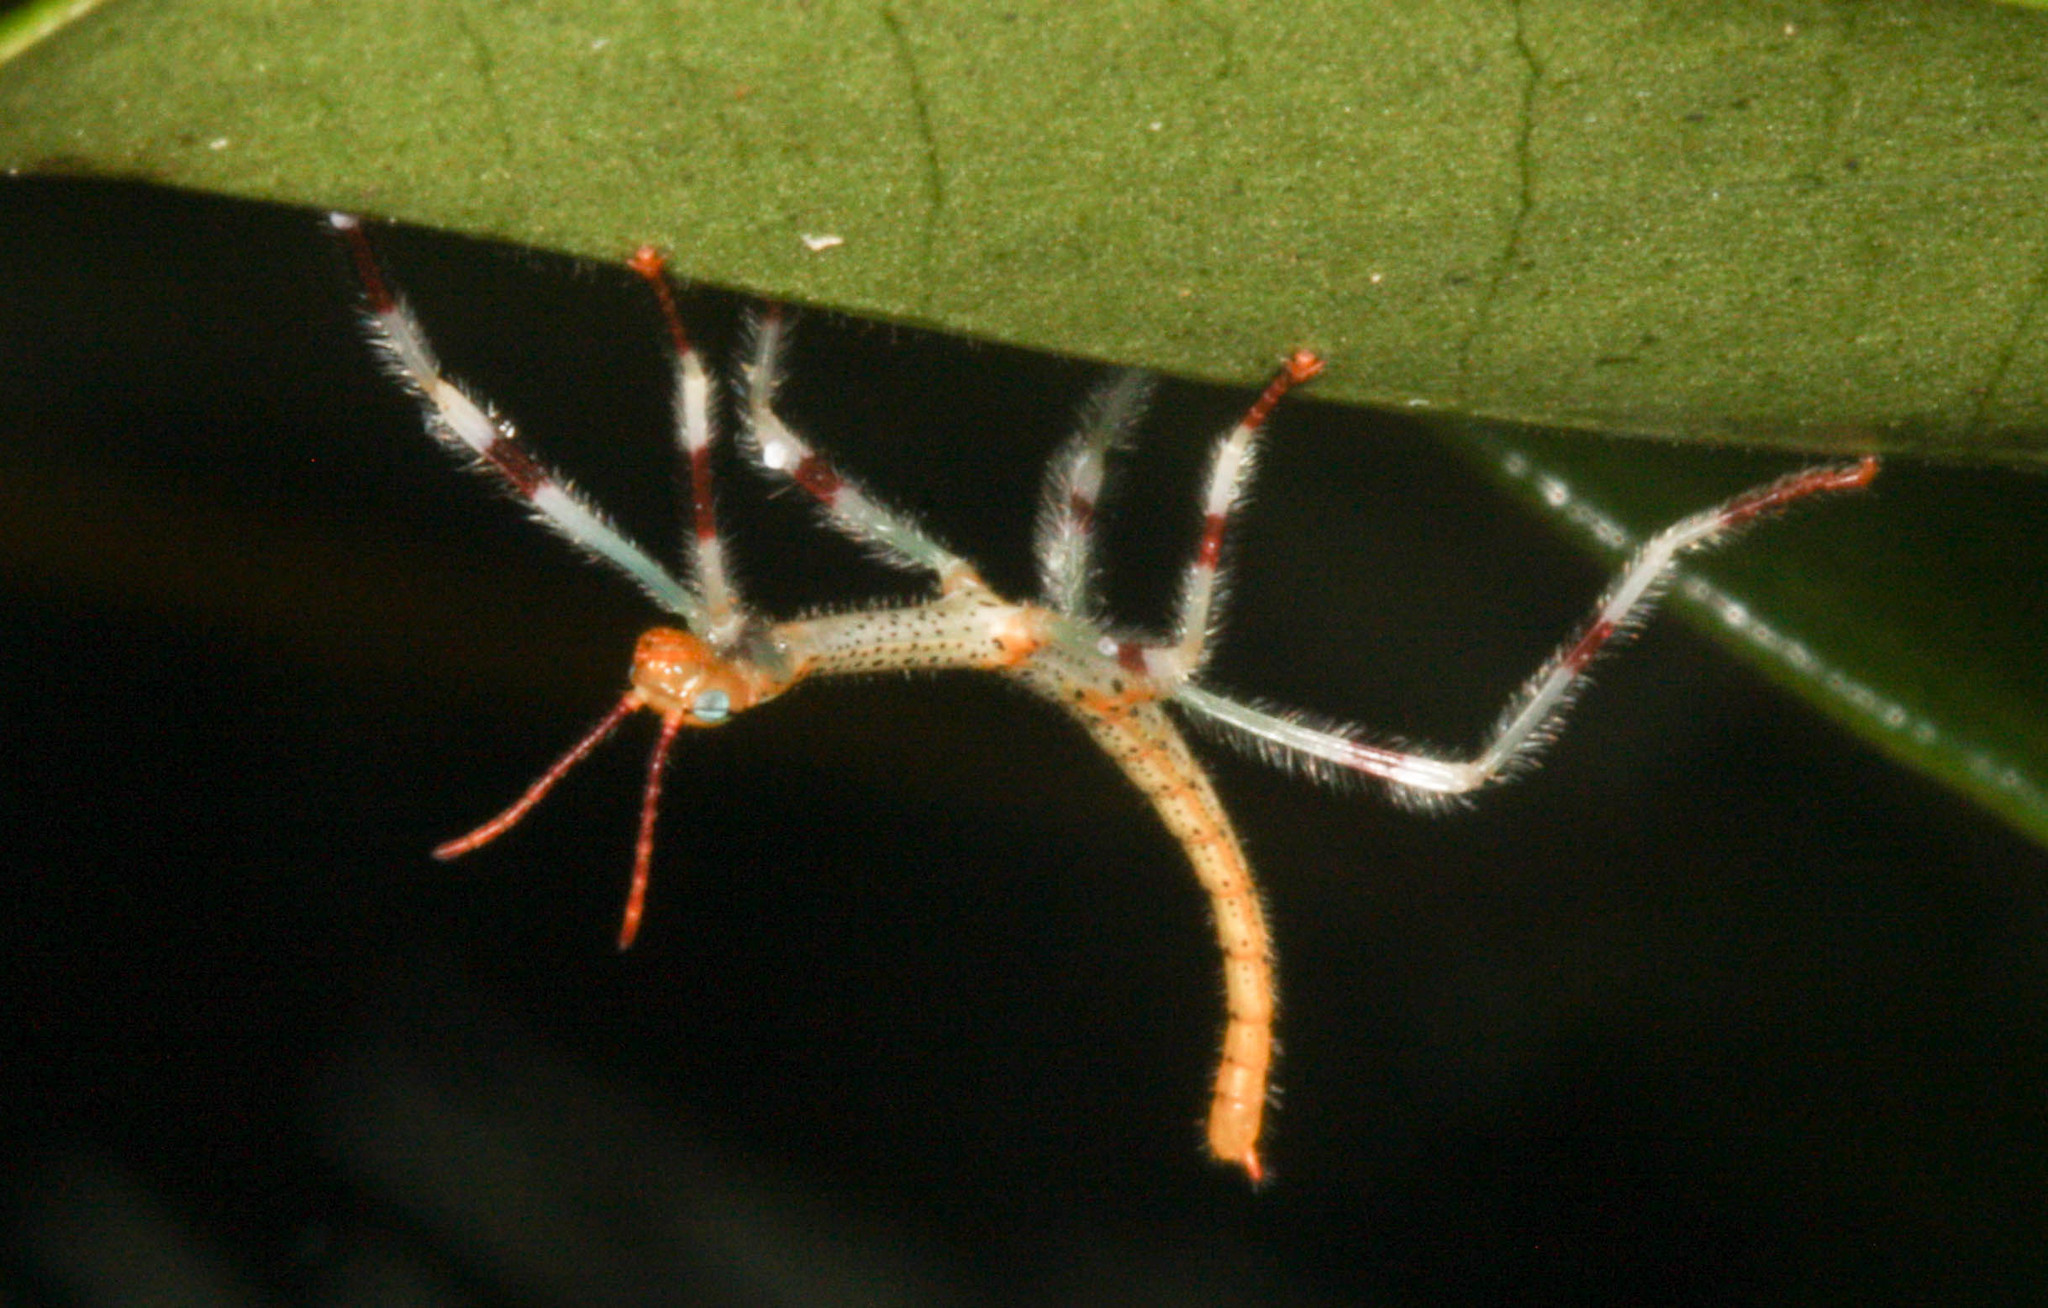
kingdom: Animalia
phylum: Arthropoda
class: Insecta
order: Phasmida
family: Anisacanthidae
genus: Leiophasma
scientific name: Leiophasma adustum
